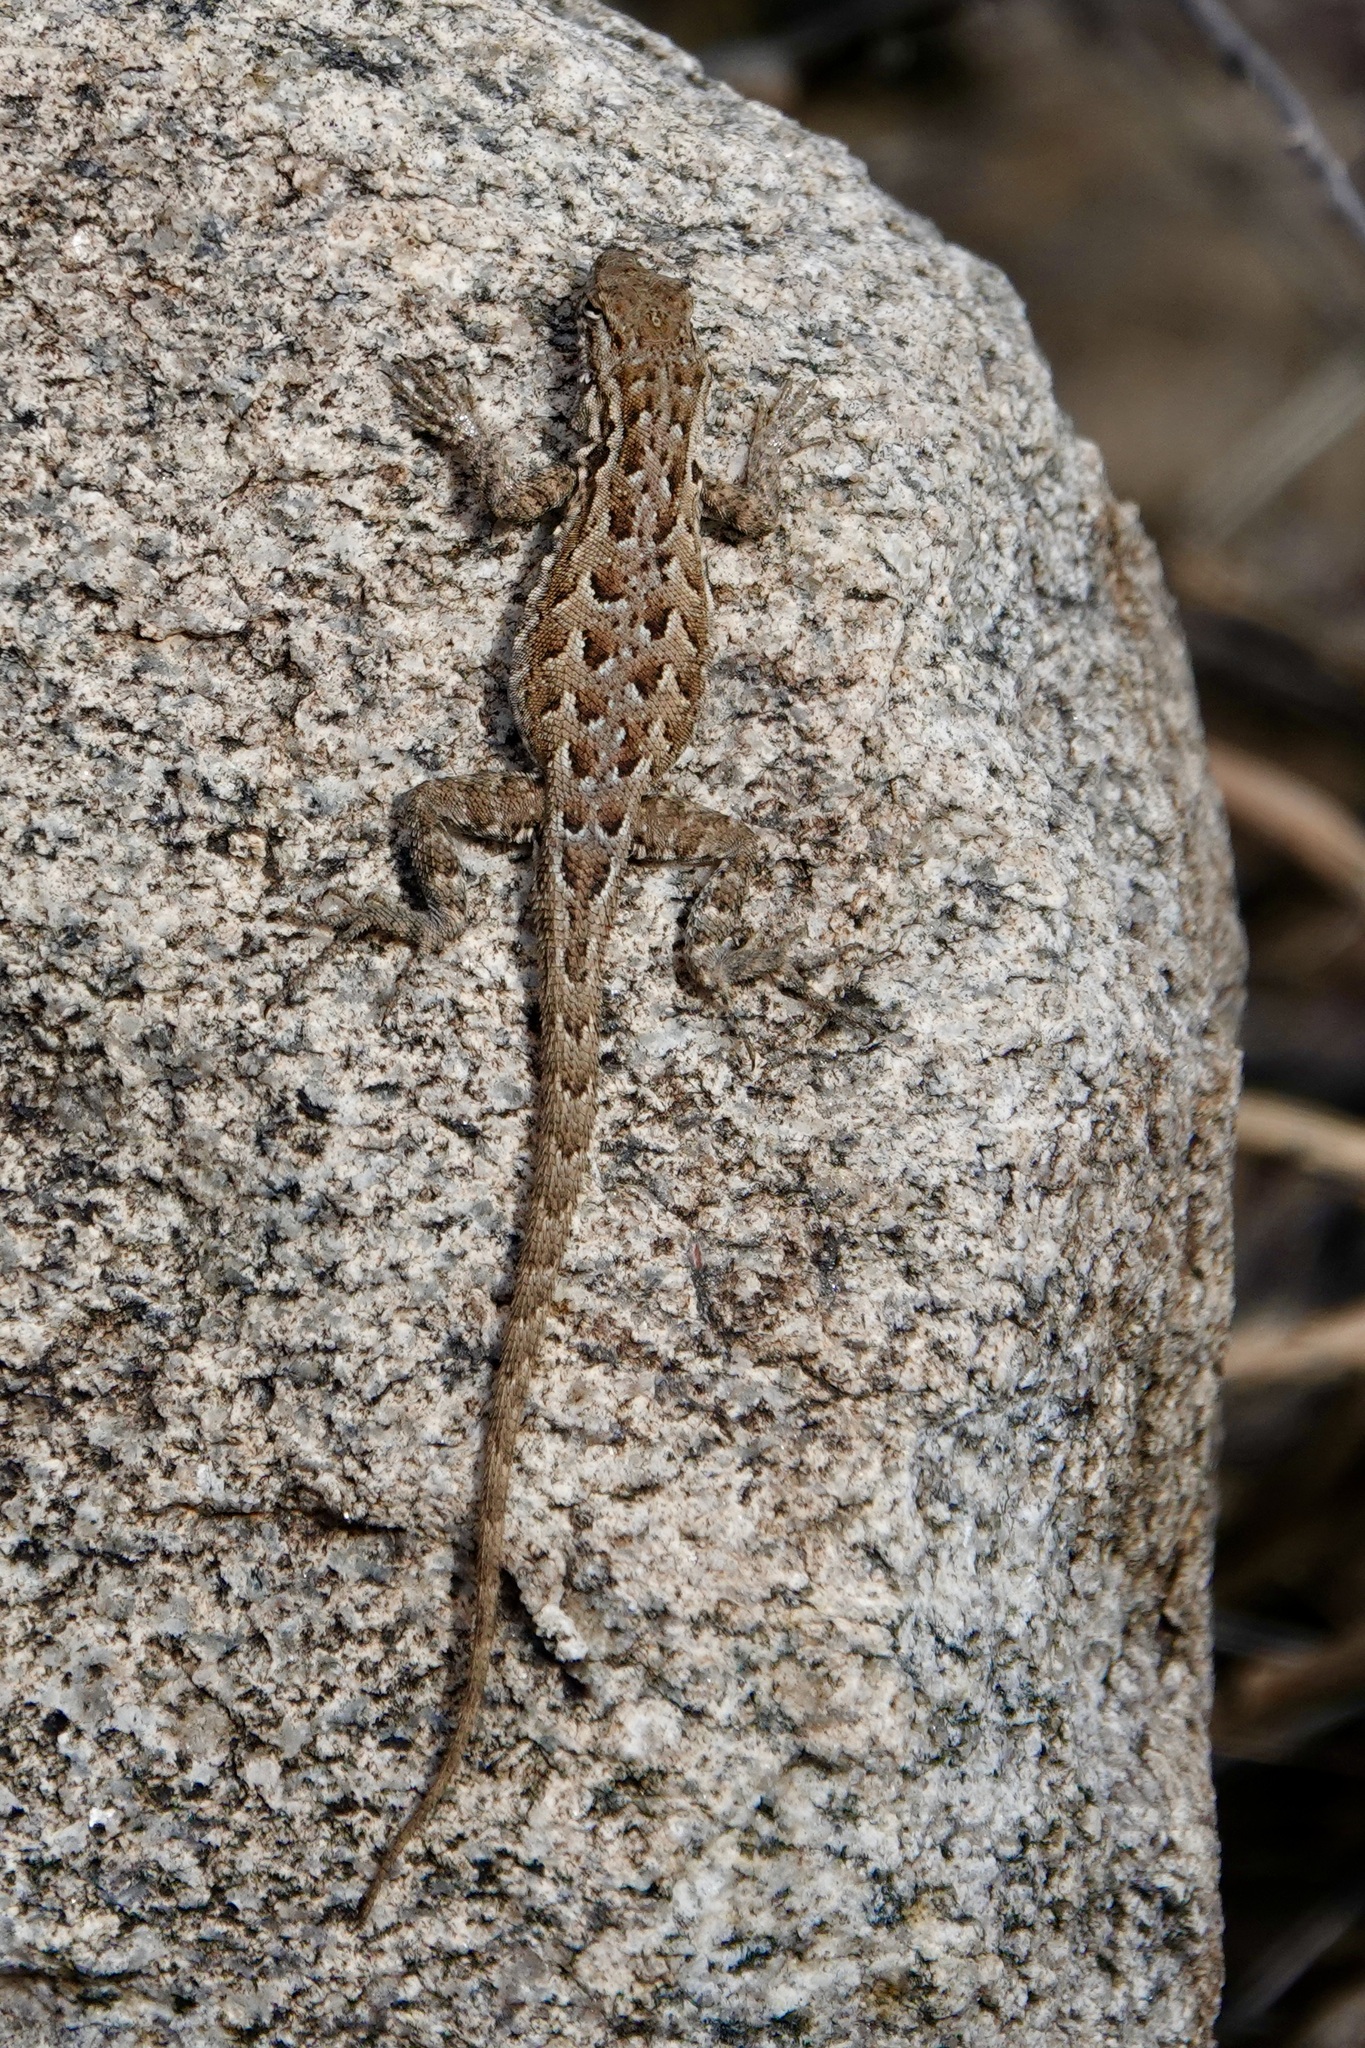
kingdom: Animalia
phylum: Chordata
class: Squamata
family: Phrynosomatidae
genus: Uta
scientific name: Uta stansburiana
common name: Side-blotched lizard
